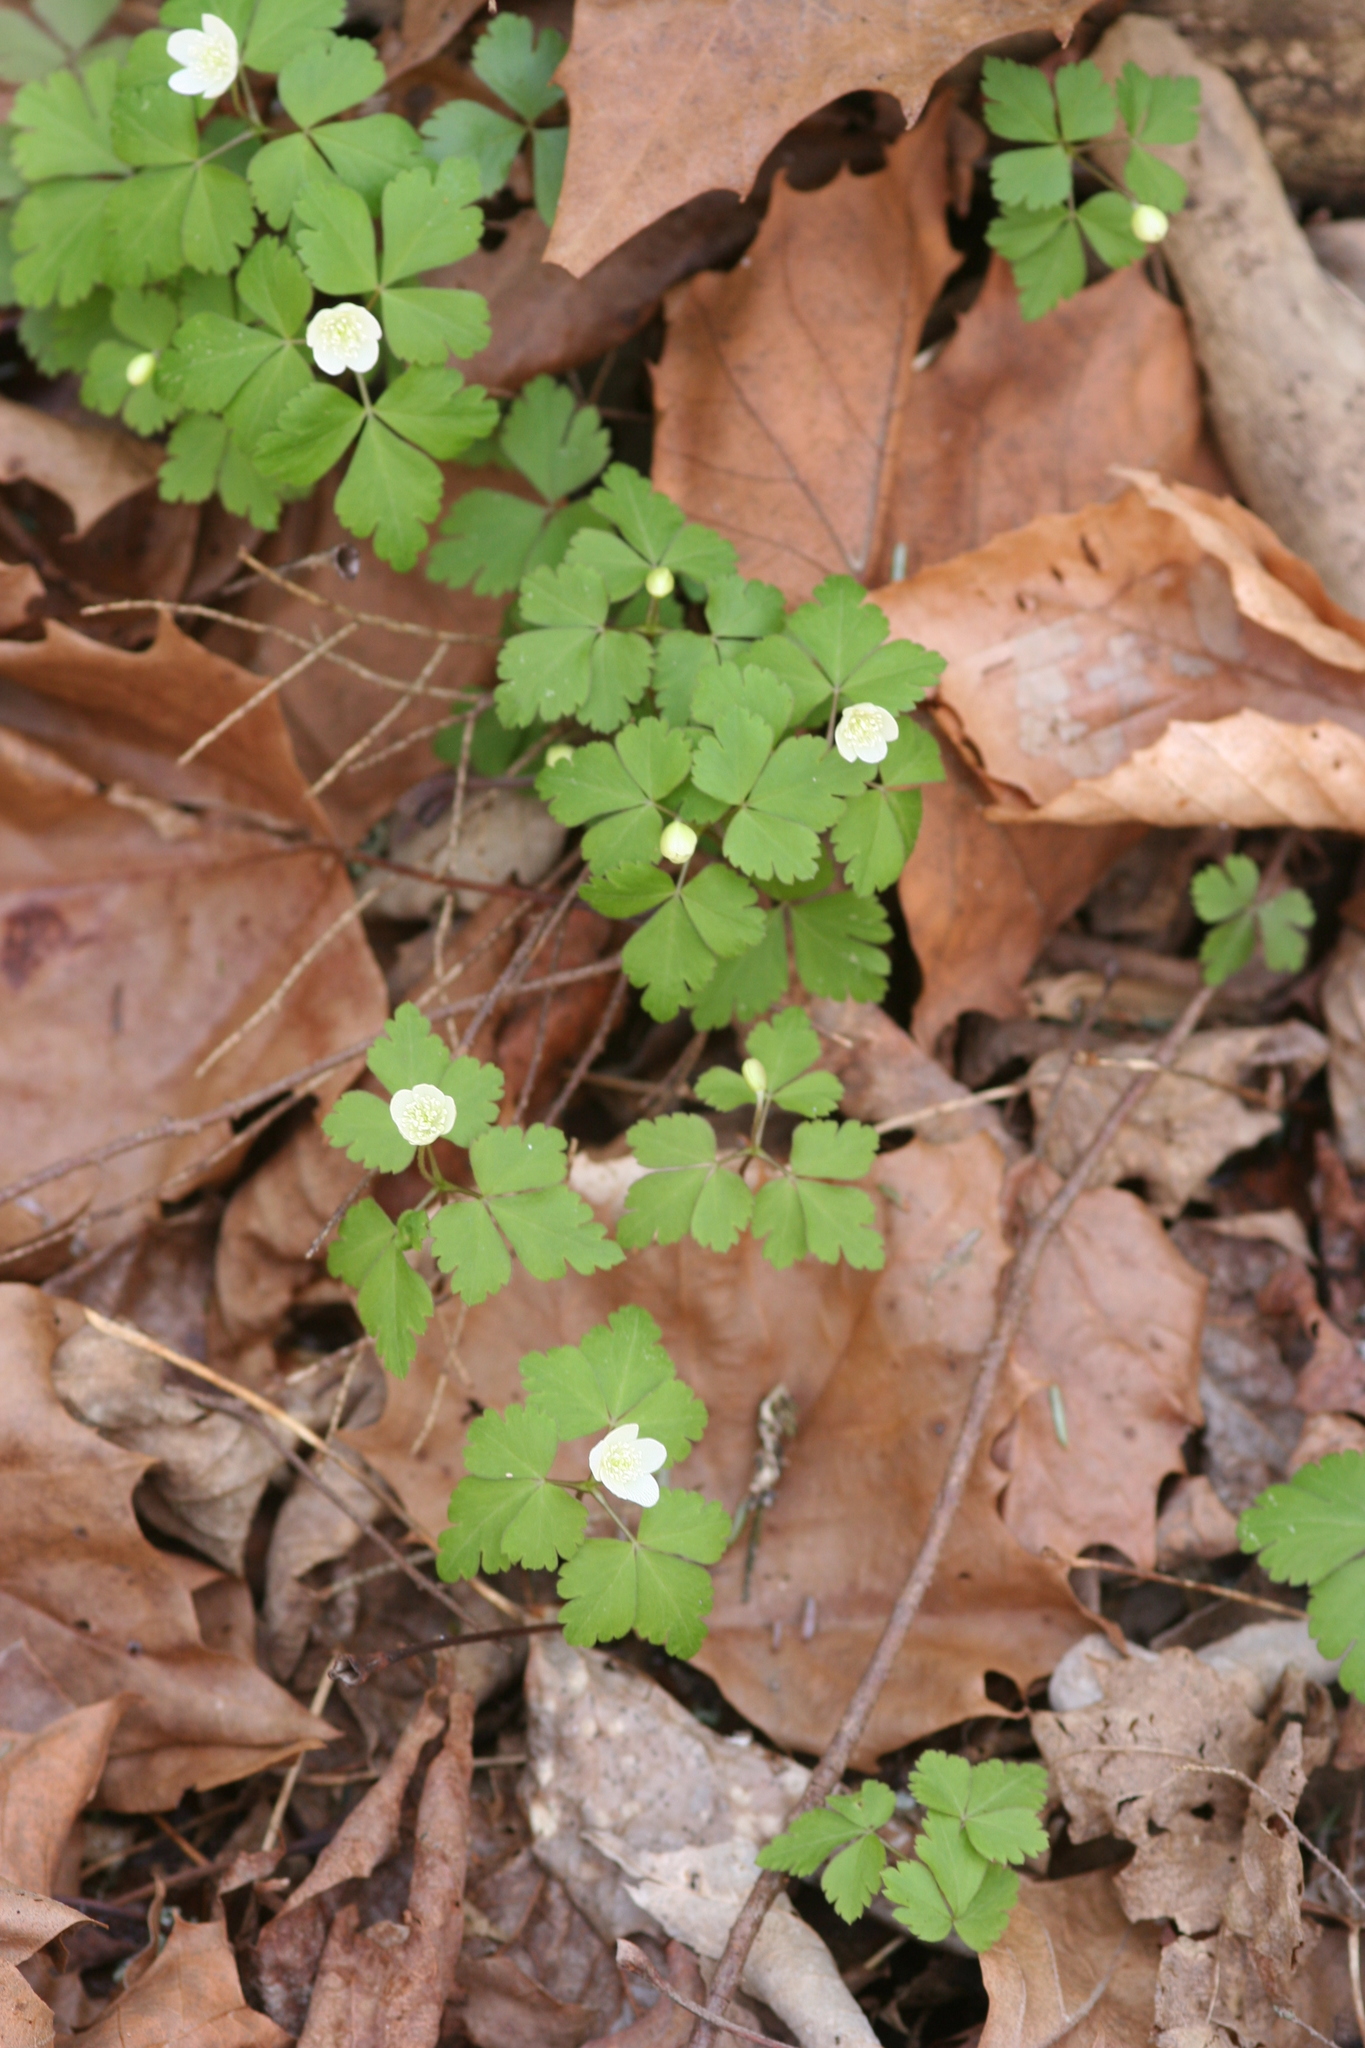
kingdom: Plantae
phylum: Tracheophyta
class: Magnoliopsida
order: Ranunculales
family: Ranunculaceae
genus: Anemone
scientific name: Anemone quinquefolia
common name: Wood anemone
